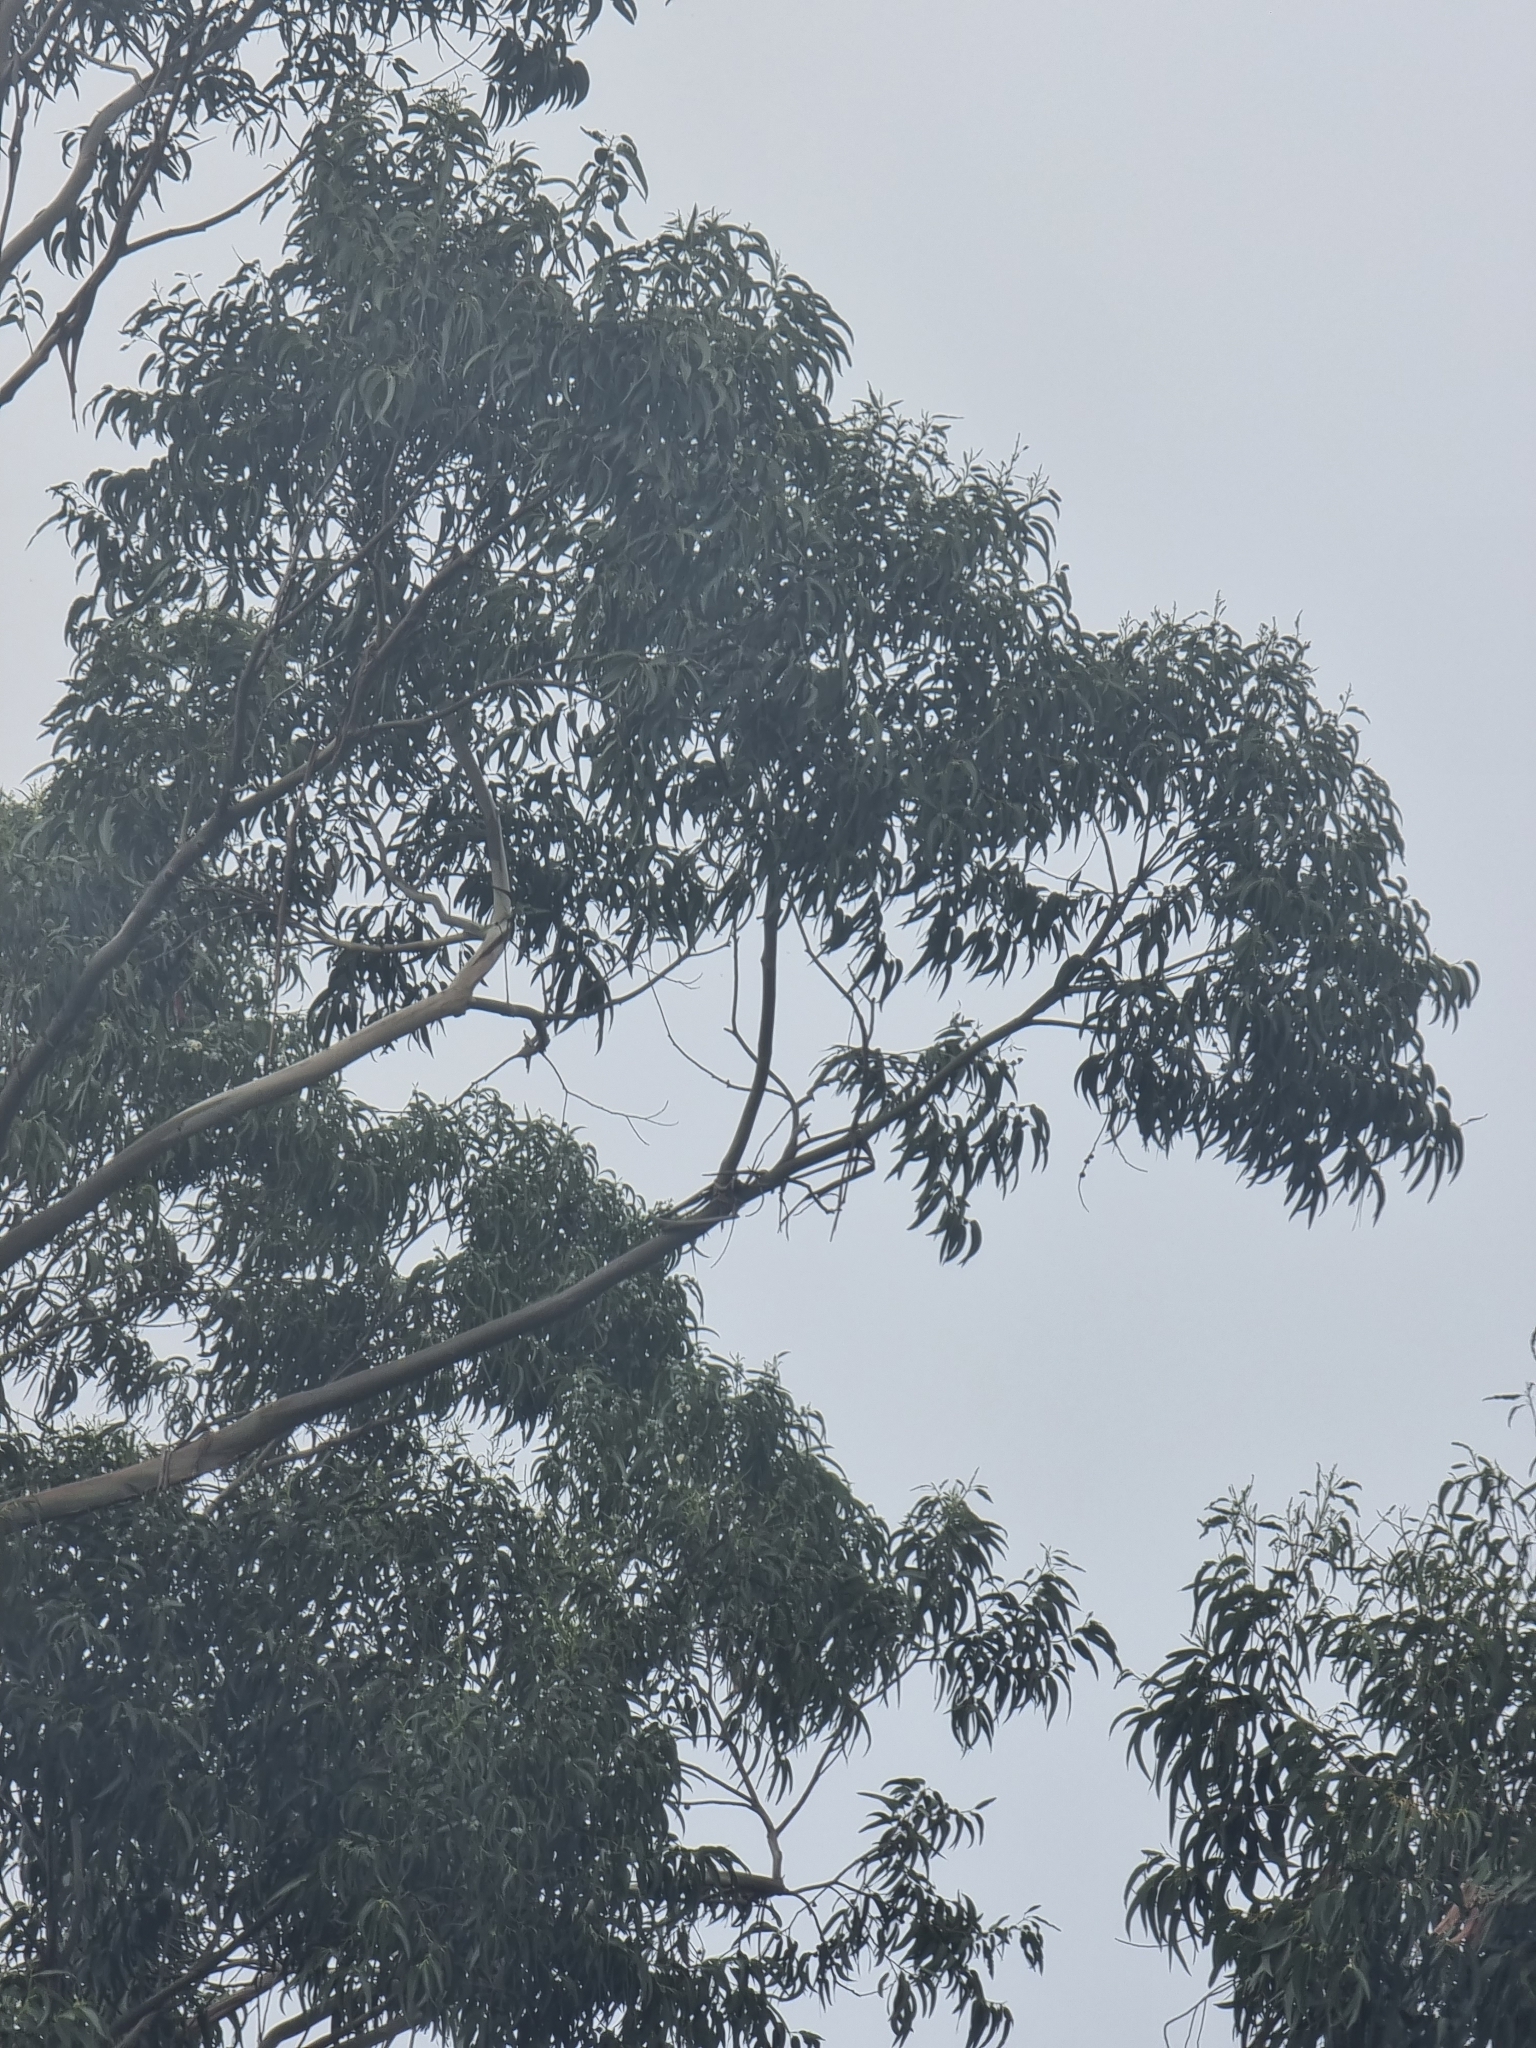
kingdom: Plantae
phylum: Tracheophyta
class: Magnoliopsida
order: Myrtales
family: Myrtaceae
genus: Eucalyptus
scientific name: Eucalyptus globulus
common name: Southern blue-gum
